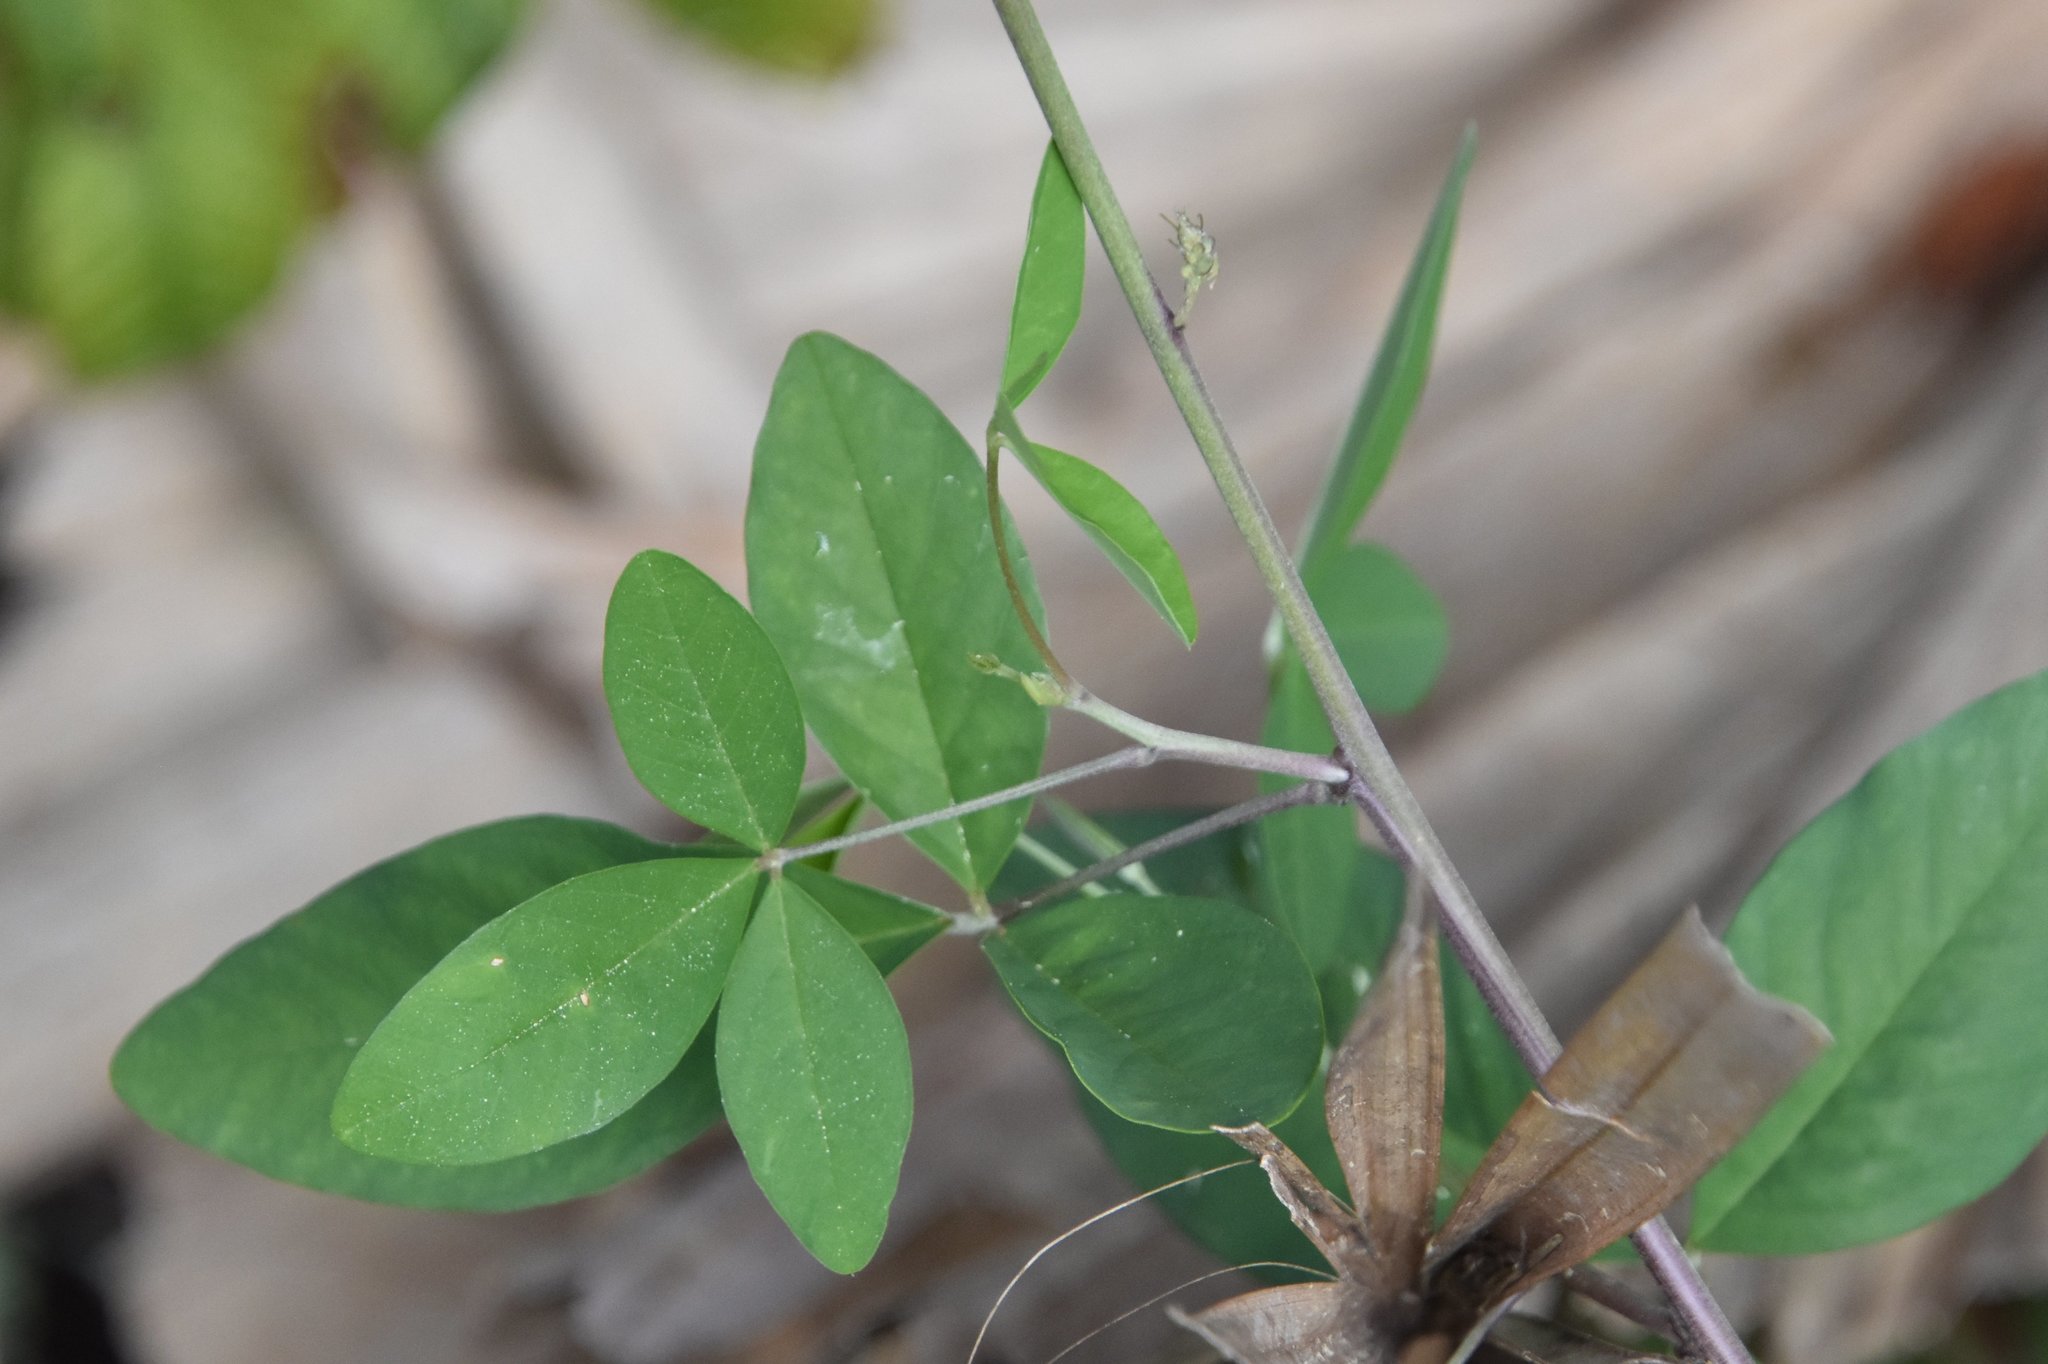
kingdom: Plantae
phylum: Tracheophyta
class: Magnoliopsida
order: Fabales
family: Fabaceae
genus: Crotalaria
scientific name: Crotalaria pallida
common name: Smooth rattlebox
